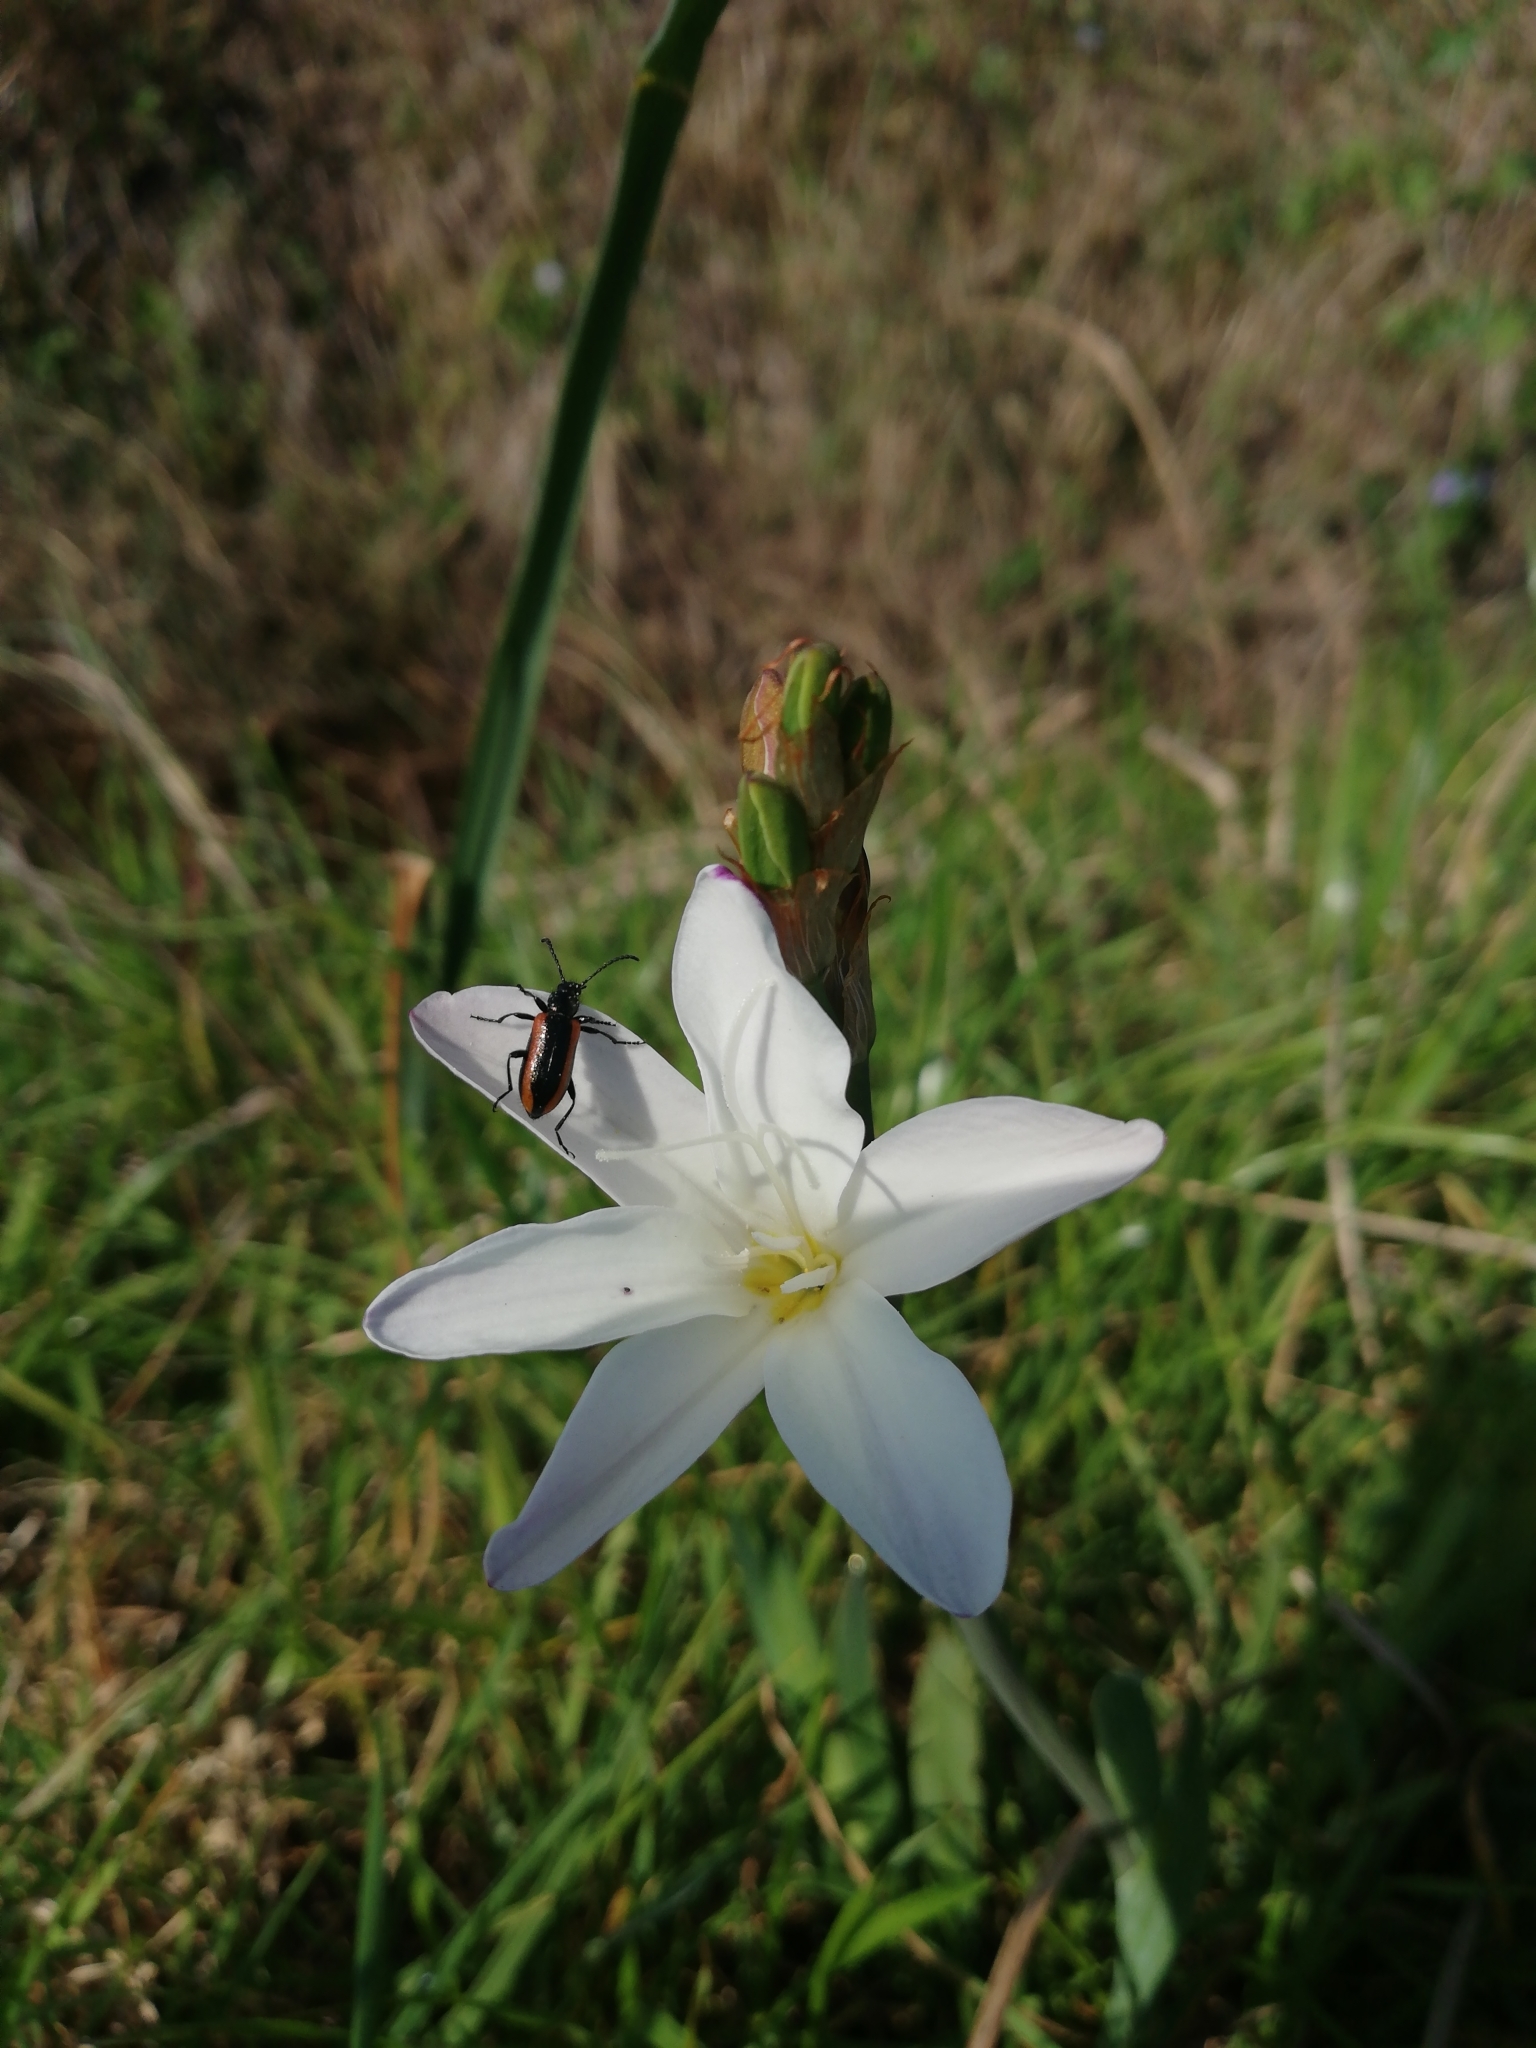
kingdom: Plantae
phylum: Tracheophyta
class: Liliopsida
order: Asparagales
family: Iridaceae
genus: Sparaxis
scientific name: Sparaxis bulbifera
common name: Harlequin-flower
